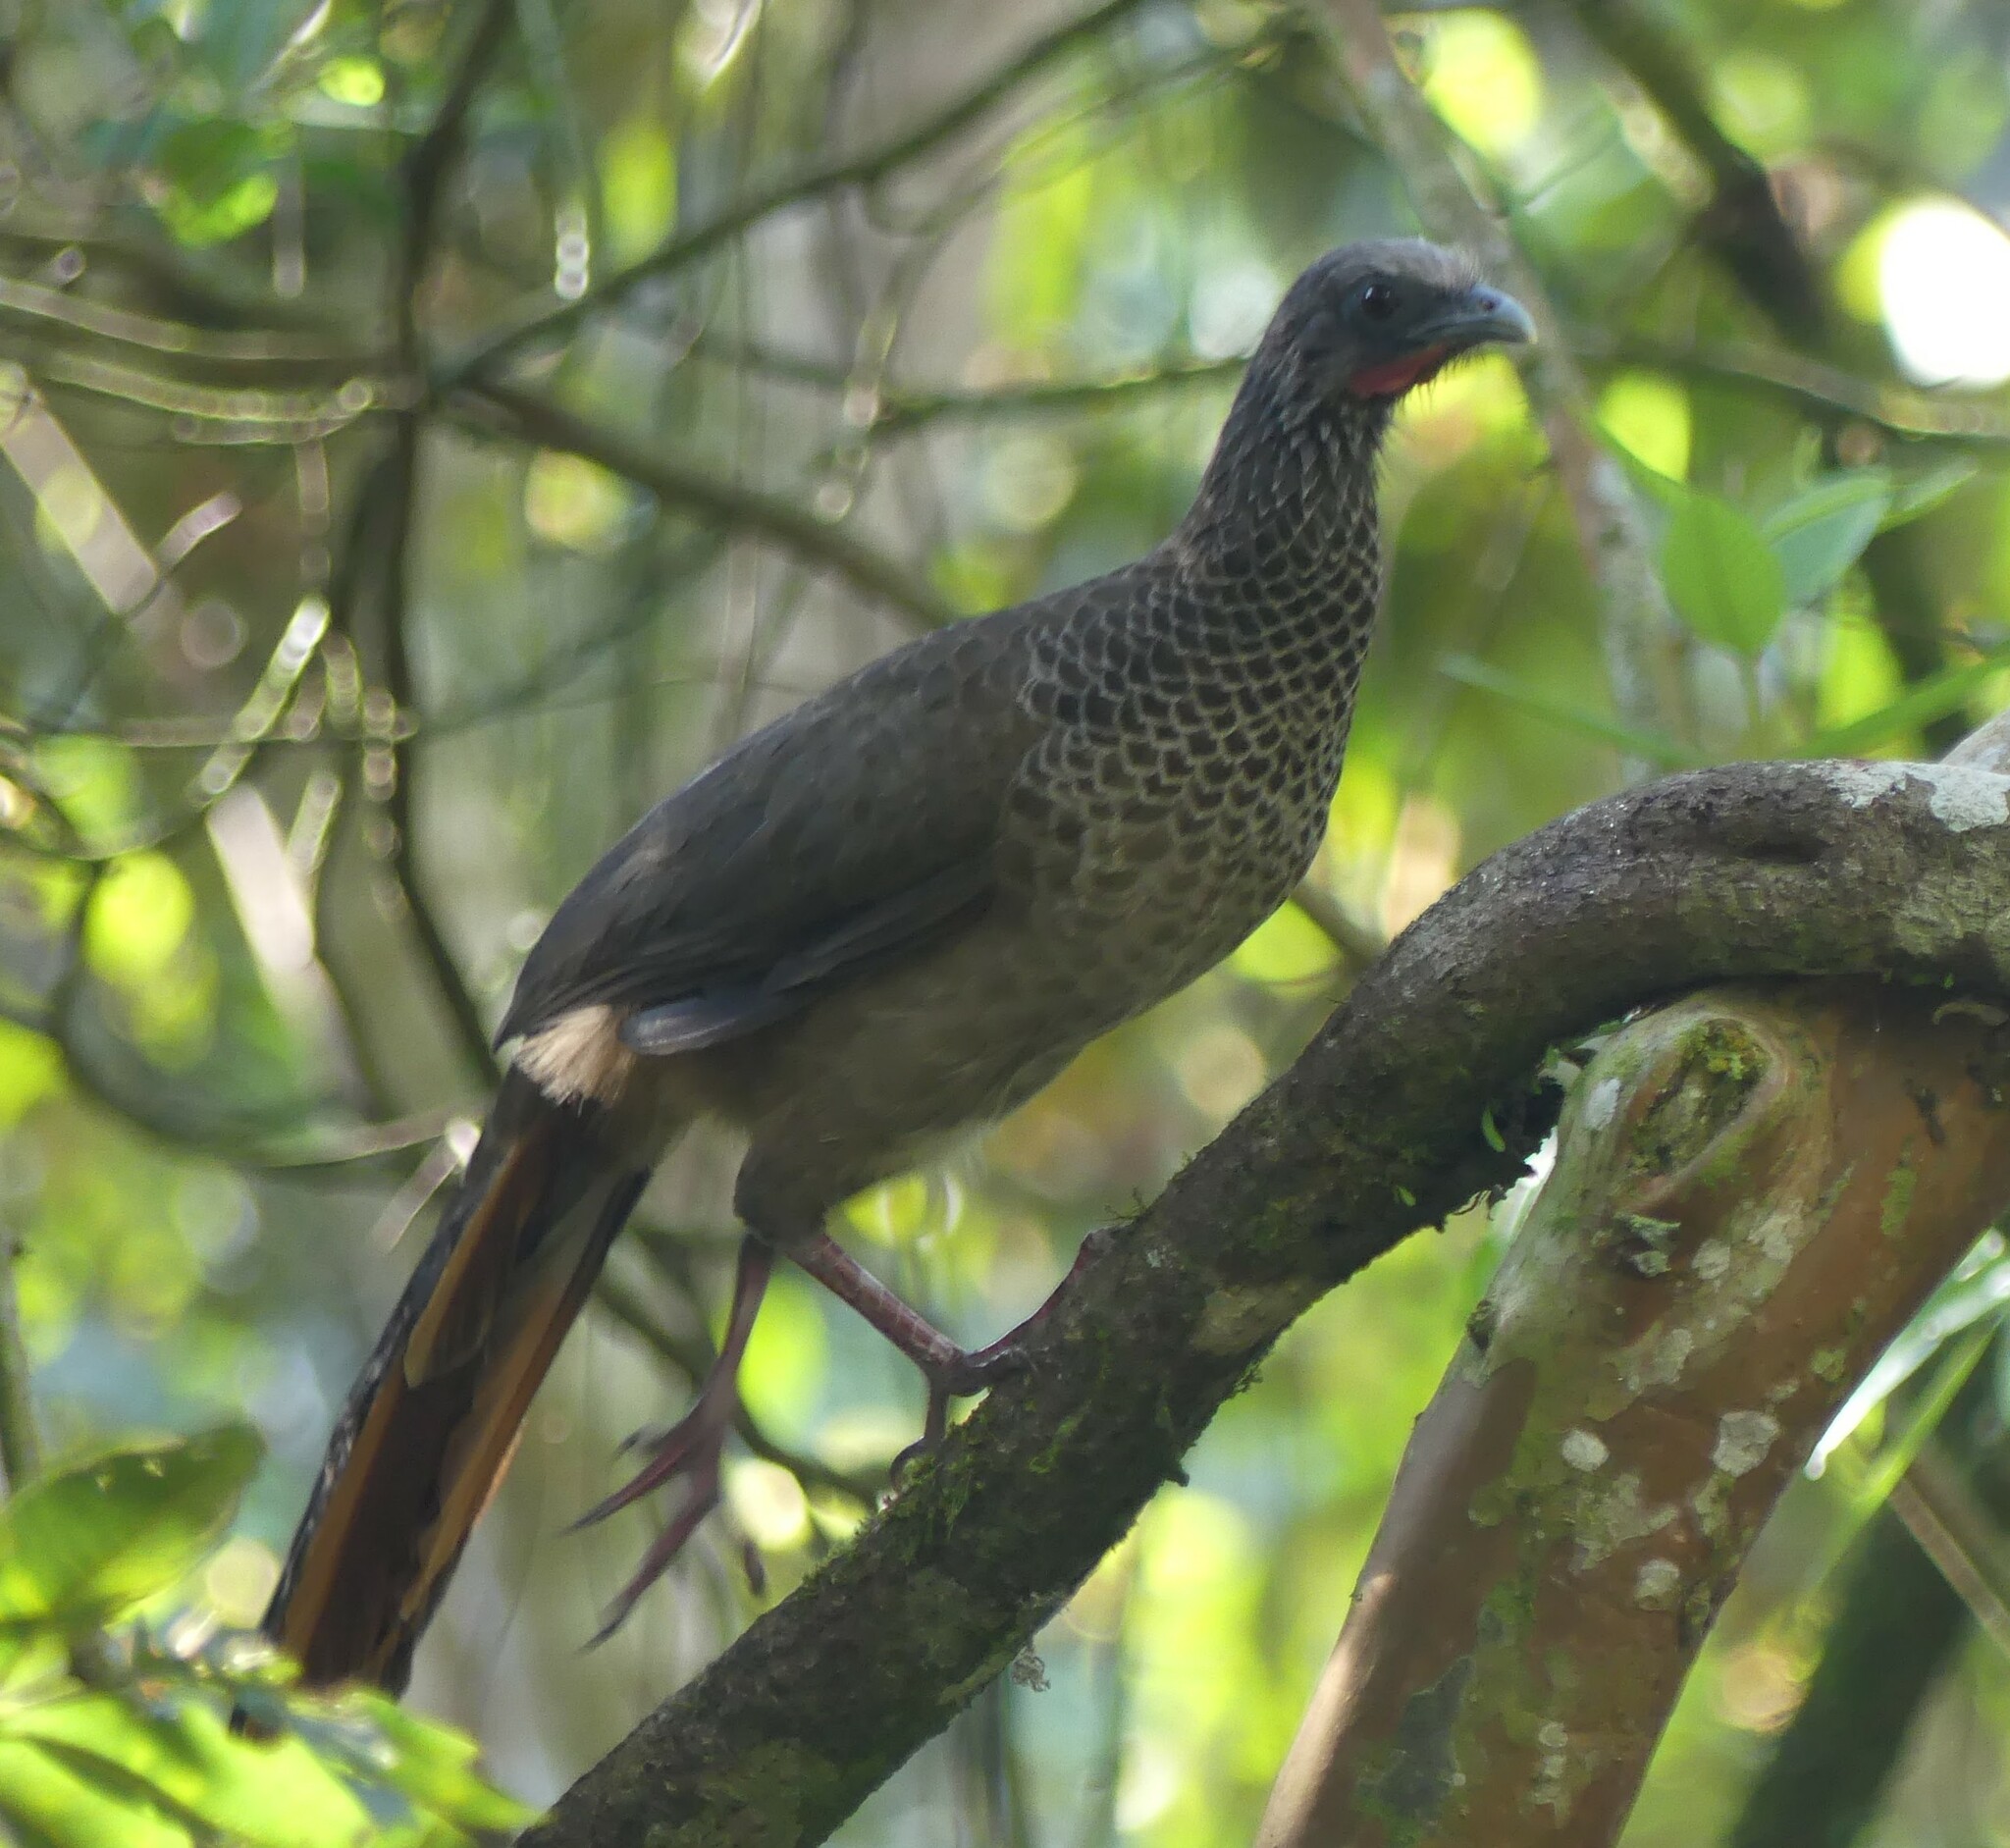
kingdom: Animalia
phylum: Chordata
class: Aves
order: Galliformes
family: Cracidae
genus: Ortalis
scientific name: Ortalis columbiana
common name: Colombian chachalaca
